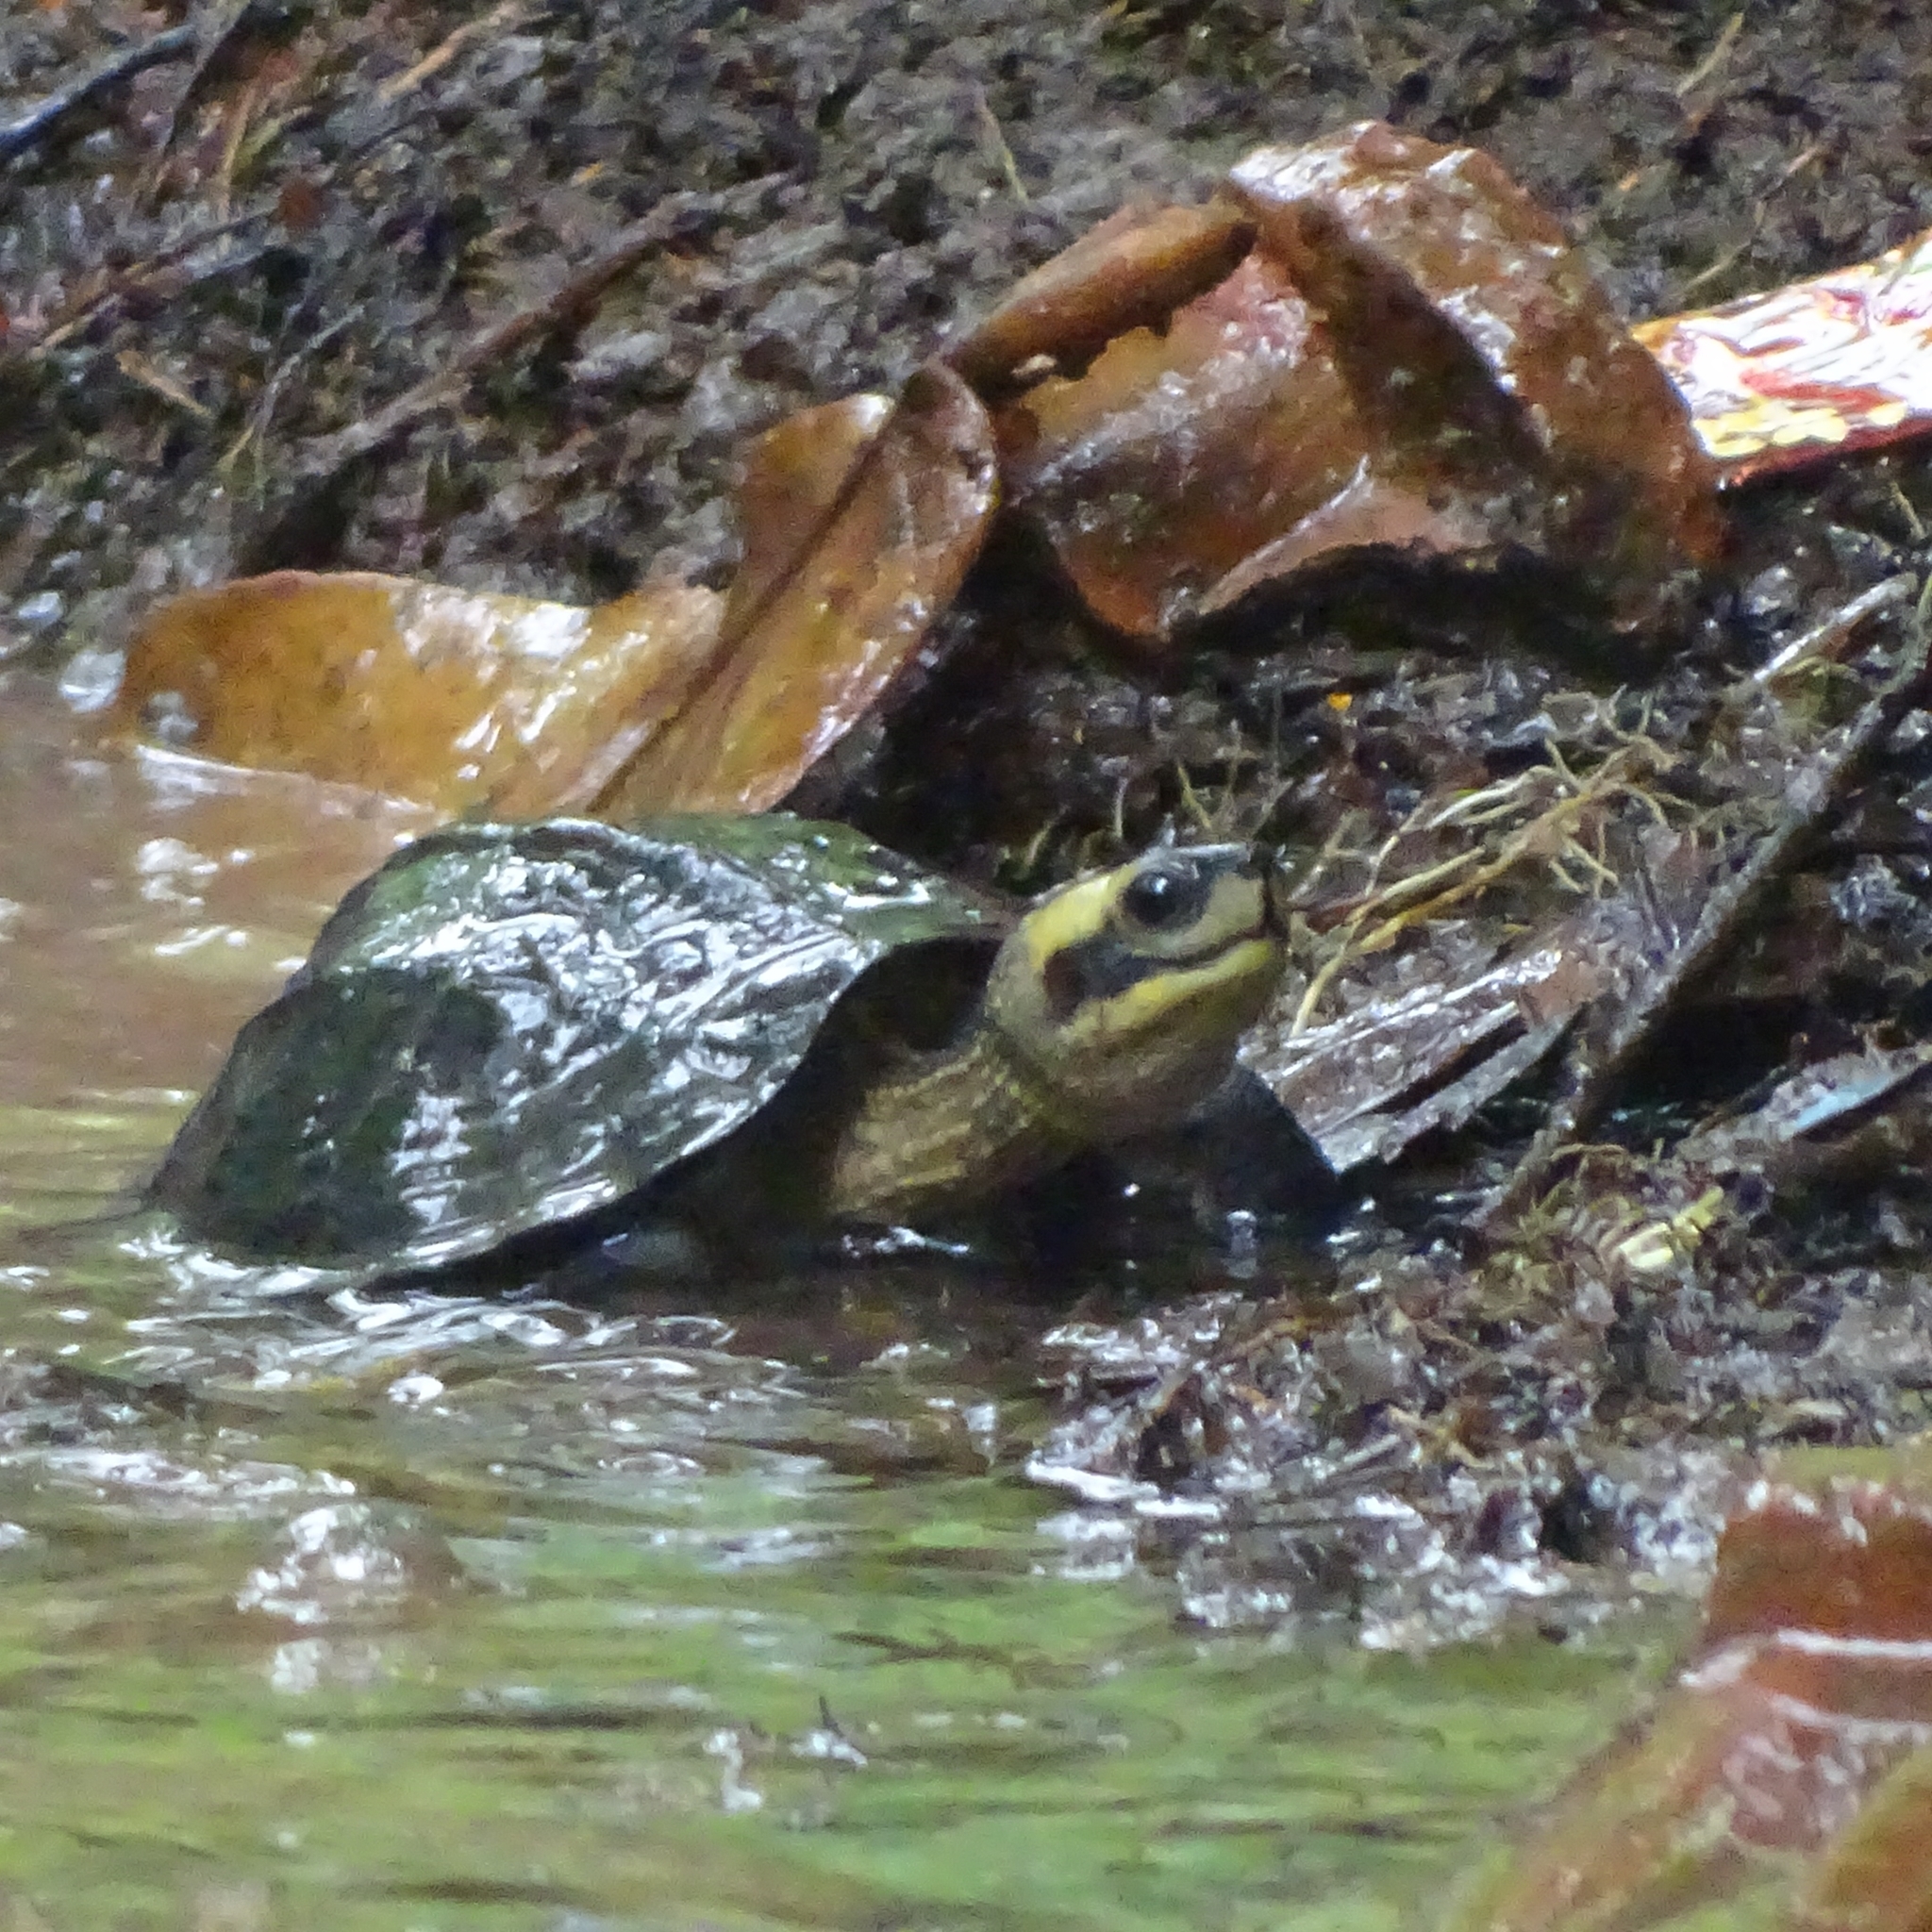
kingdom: Animalia
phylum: Chordata
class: Testudines
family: Geoemydidae
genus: Melanochelys
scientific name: Melanochelys trijuga
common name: Indian black turtle
